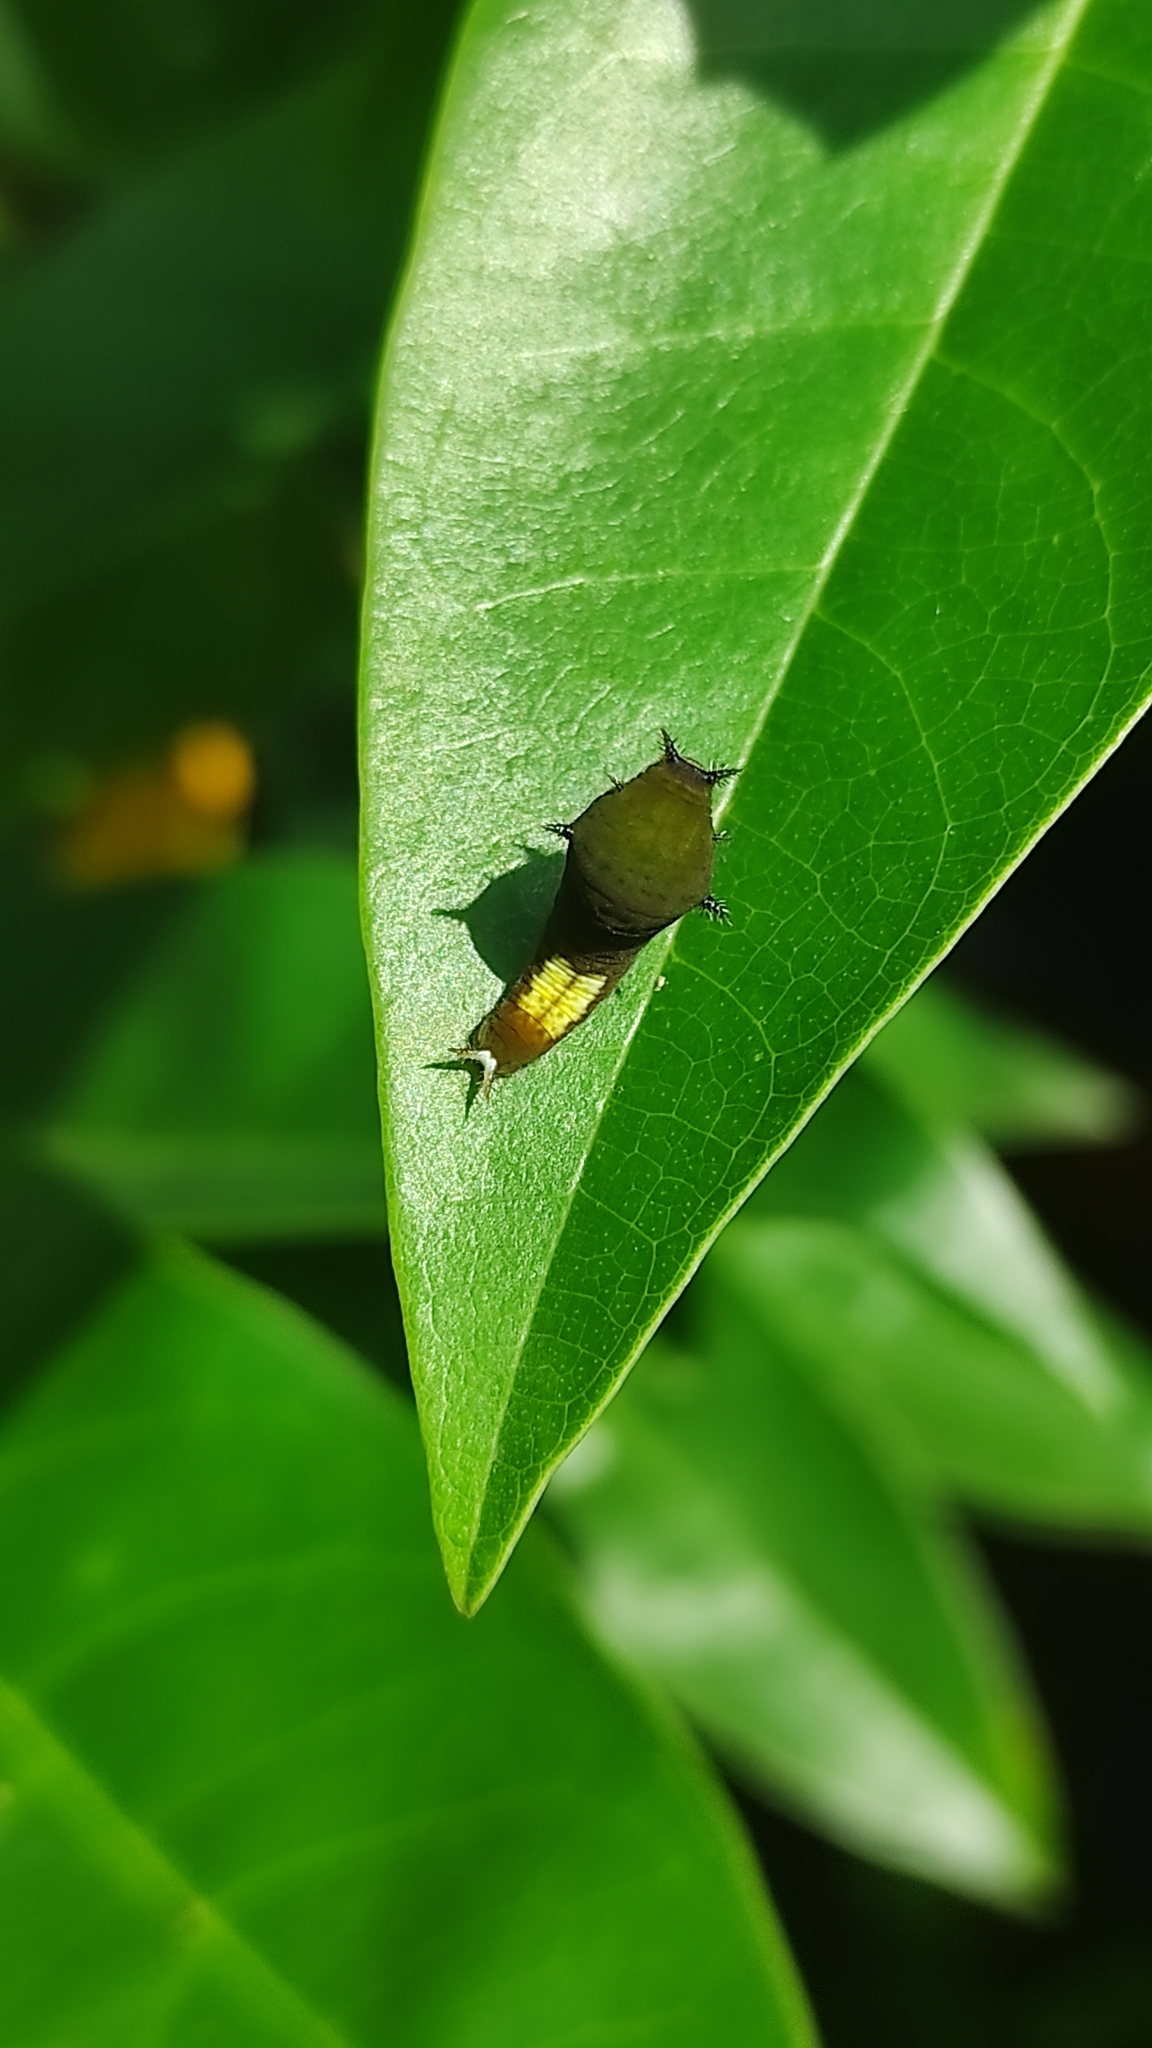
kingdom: Animalia
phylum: Arthropoda
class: Insecta
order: Lepidoptera
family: Papilionidae
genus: Graphium
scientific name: Graphium agamemnon
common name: Tailed jay
